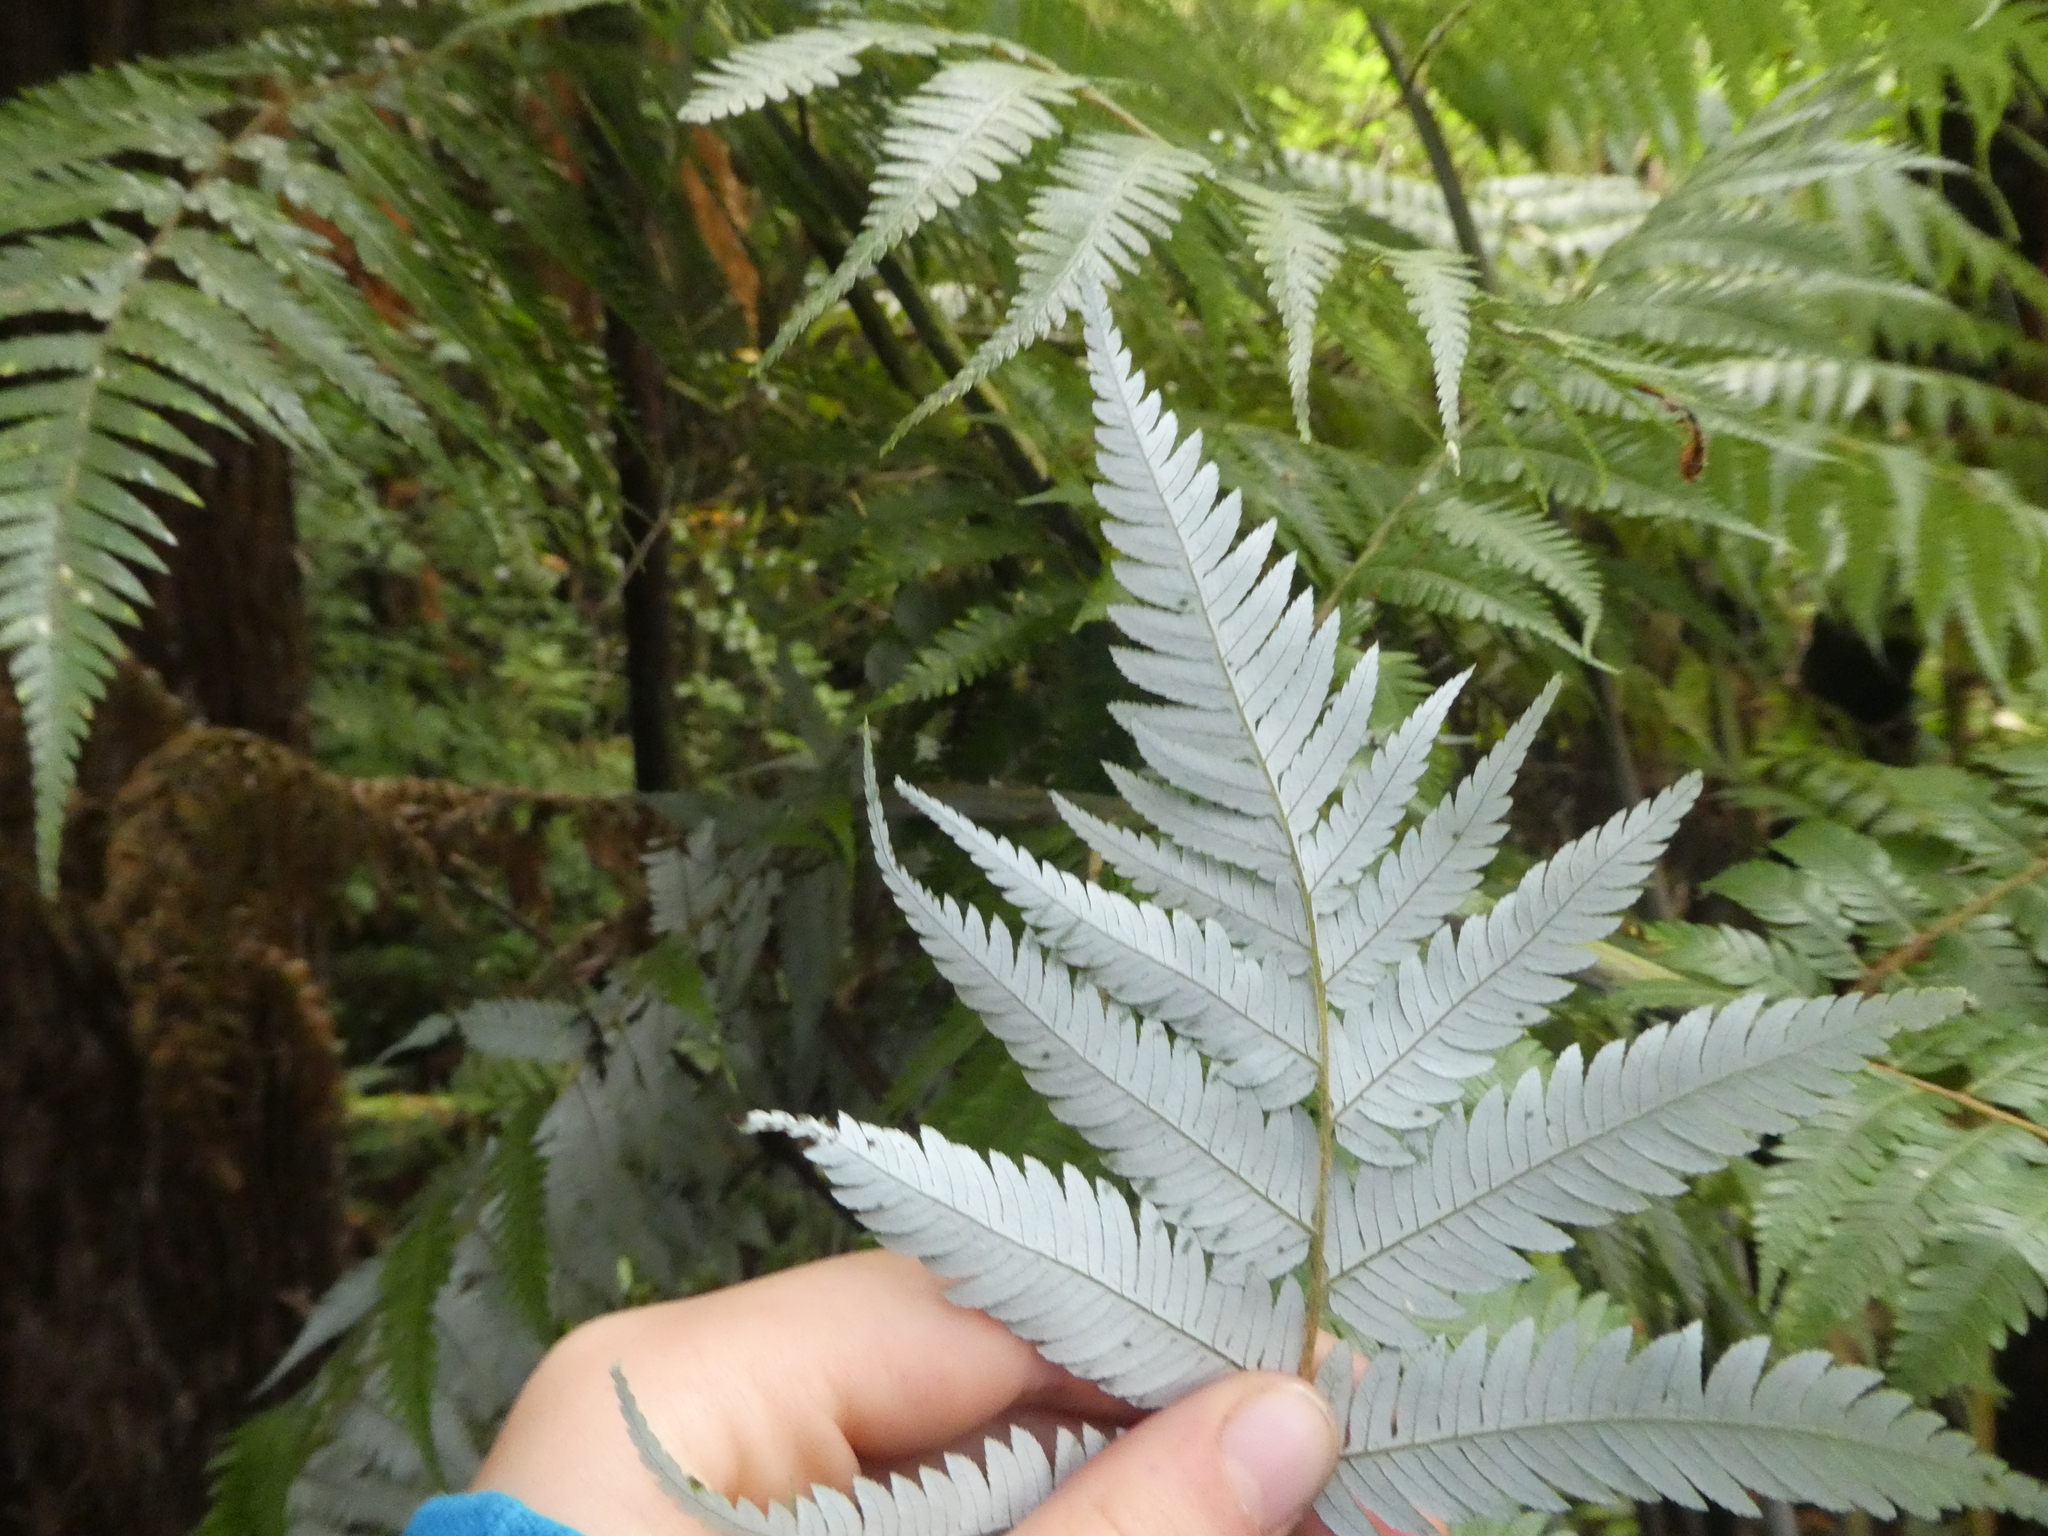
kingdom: Plantae
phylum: Tracheophyta
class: Polypodiopsida
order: Cyatheales
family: Cyatheaceae
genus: Alsophila
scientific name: Alsophila dealbata
